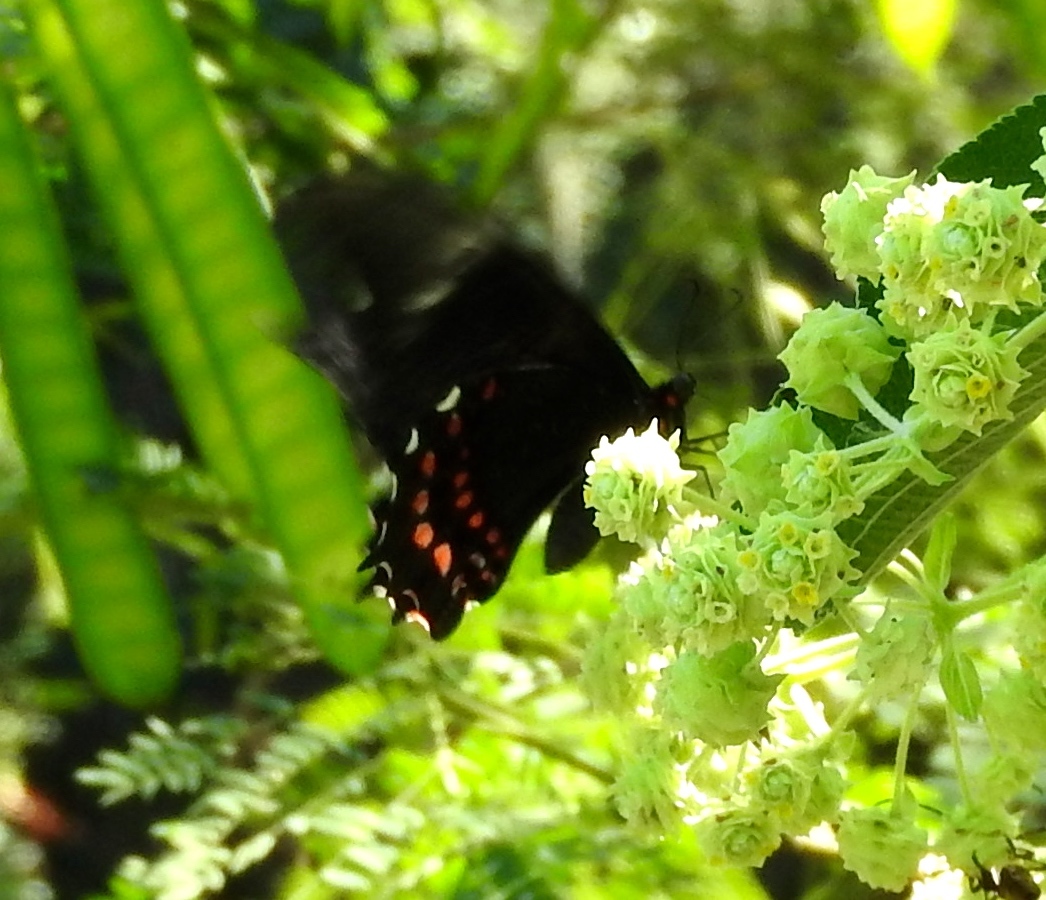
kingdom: Animalia
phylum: Arthropoda
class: Insecta
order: Lepidoptera
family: Papilionidae
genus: Heraclides
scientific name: Heraclides rogeri
